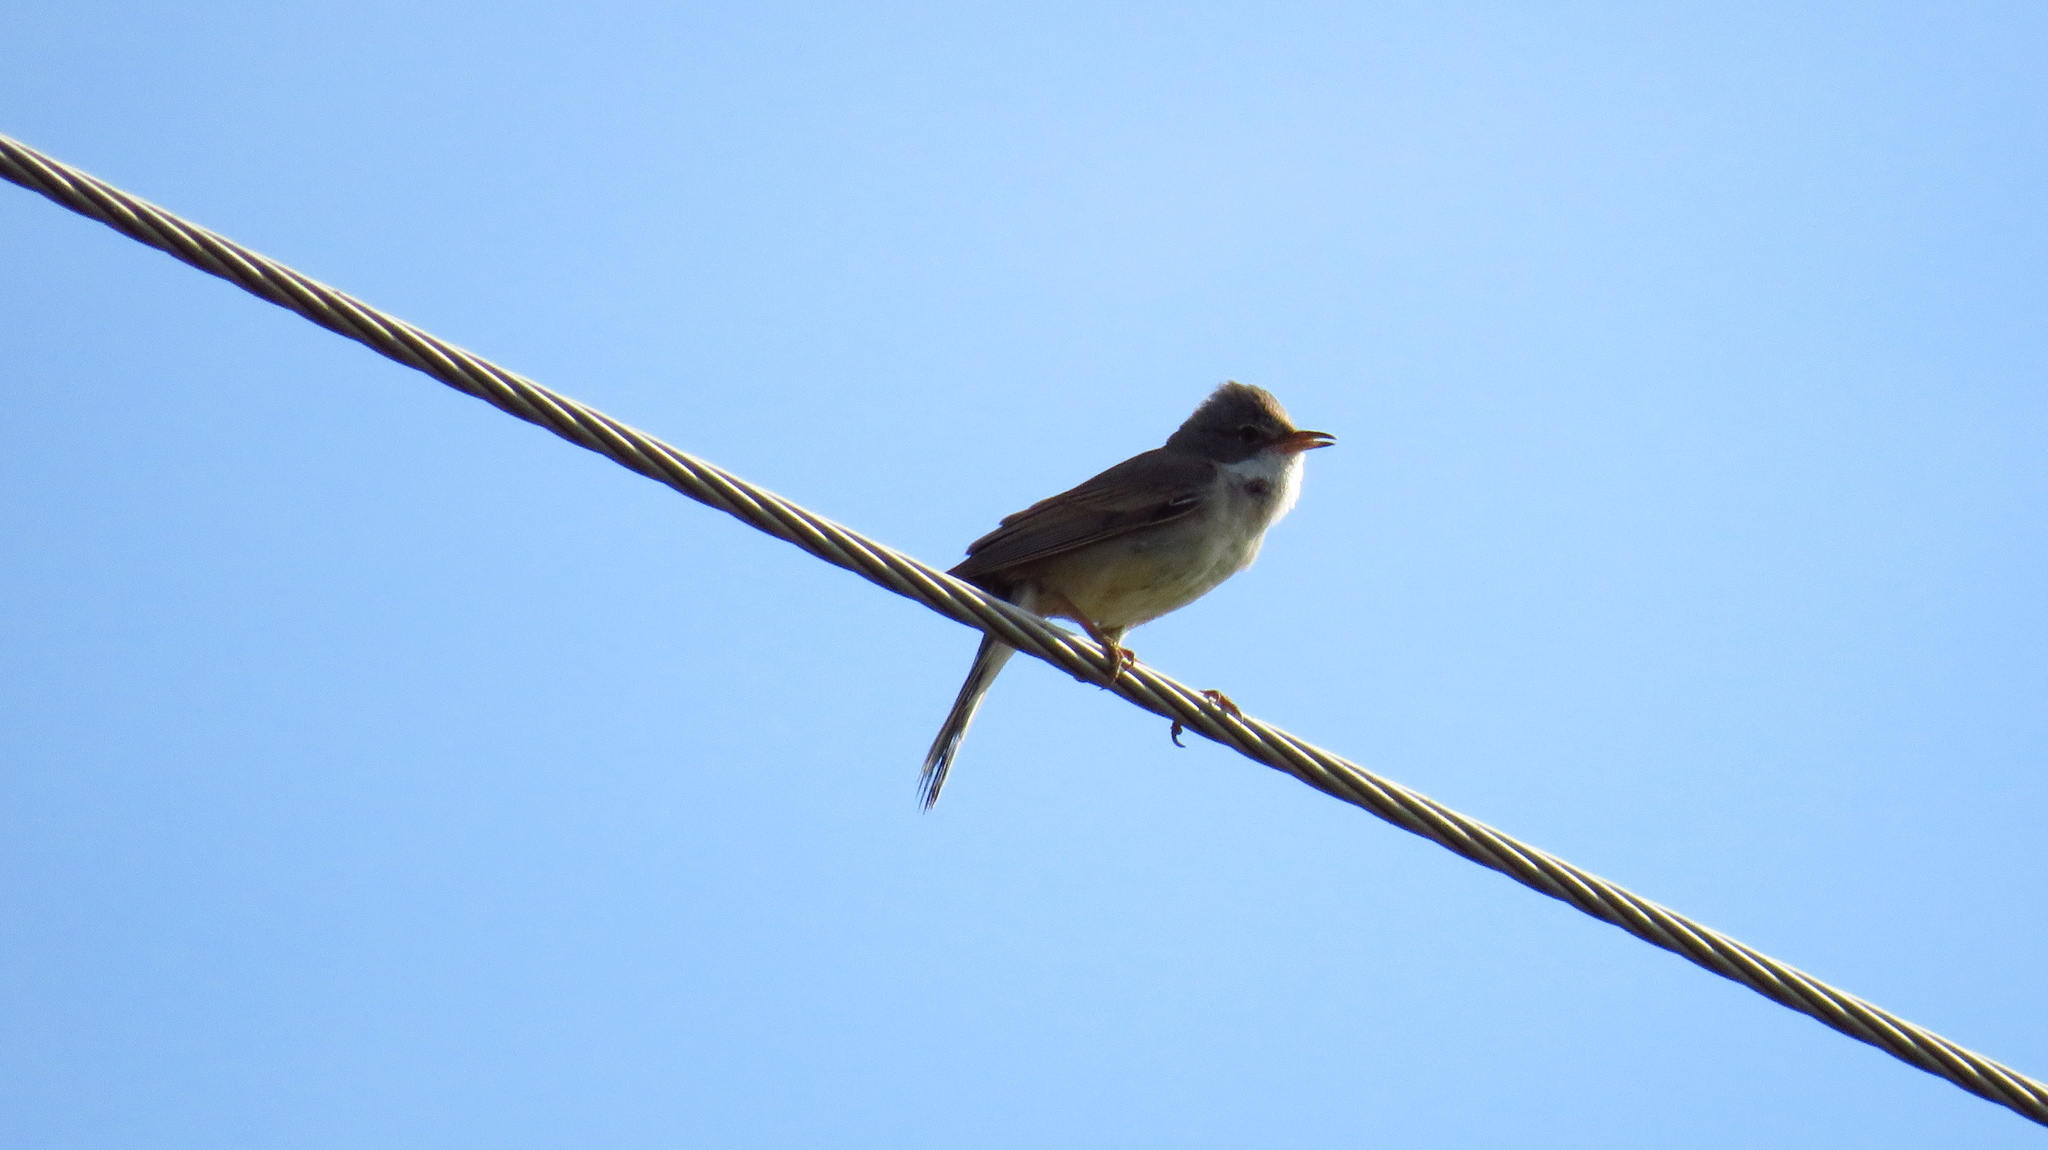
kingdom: Animalia
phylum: Chordata
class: Aves
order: Passeriformes
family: Sylviidae
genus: Sylvia
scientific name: Sylvia communis
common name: Common whitethroat
